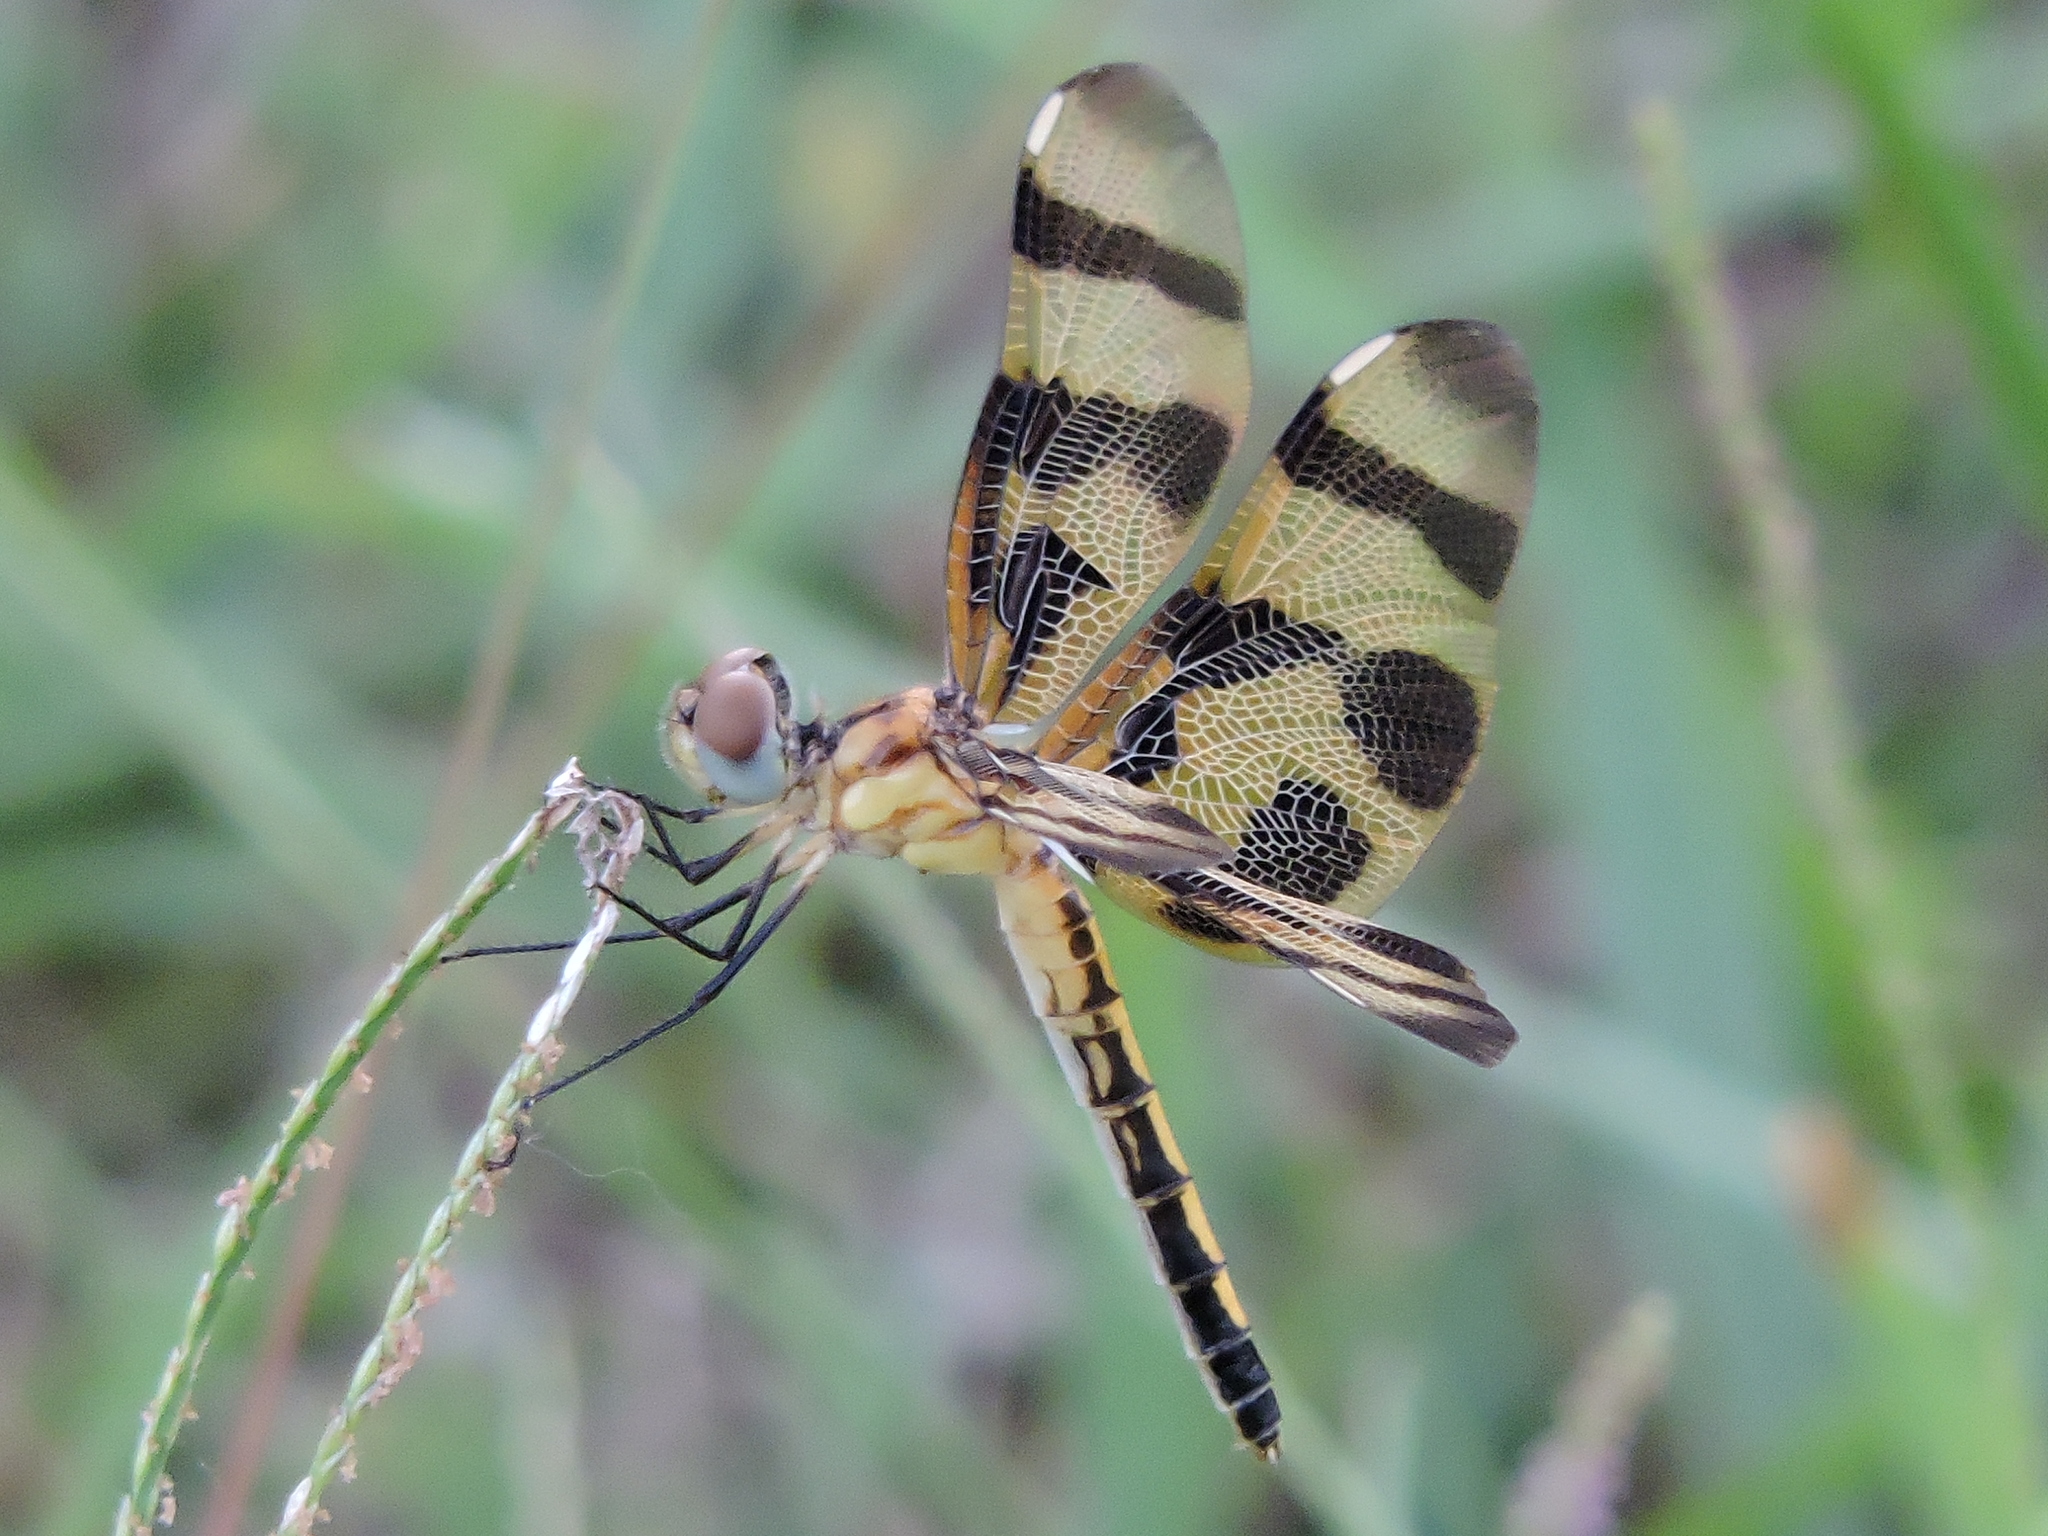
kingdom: Animalia
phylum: Arthropoda
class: Insecta
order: Odonata
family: Libellulidae
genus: Celithemis
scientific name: Celithemis eponina
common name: Halloween pennant
